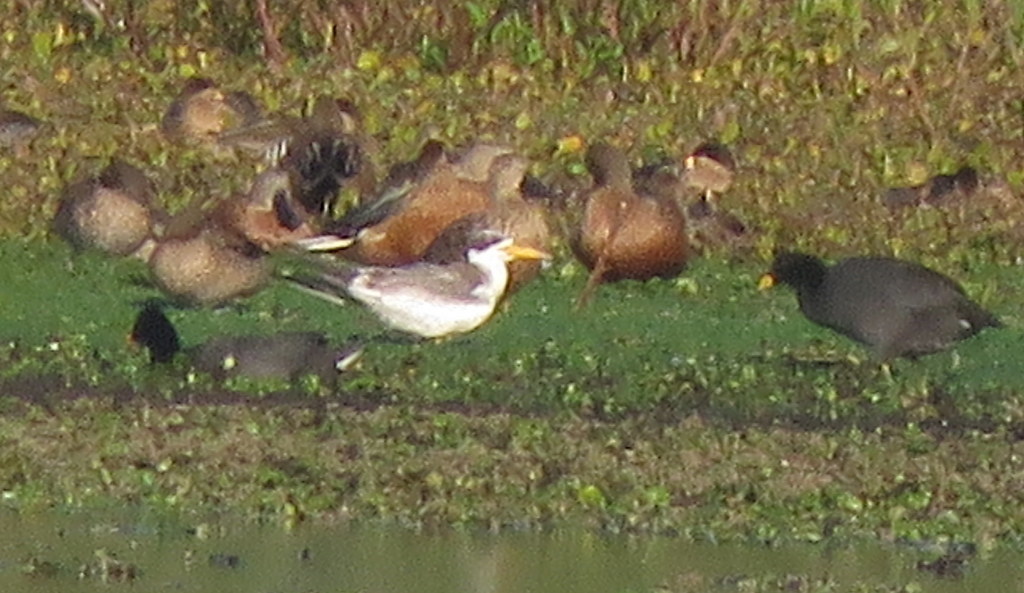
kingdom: Animalia
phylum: Chordata
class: Aves
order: Charadriiformes
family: Laridae
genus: Phaetusa
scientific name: Phaetusa simplex
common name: Large-billed tern
